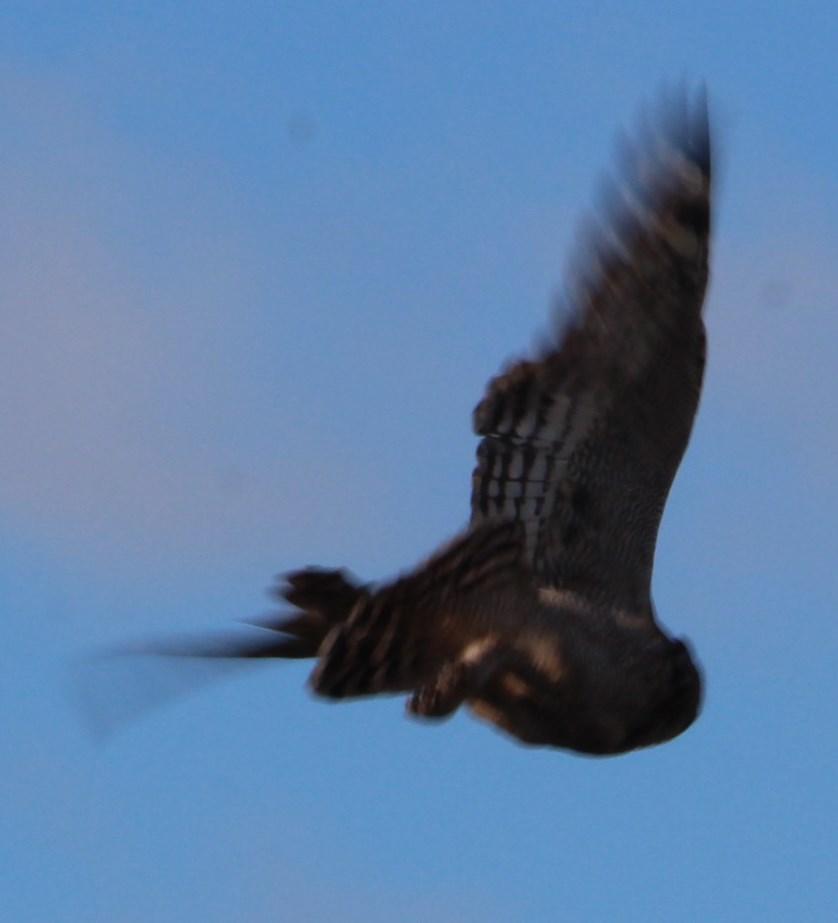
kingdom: Animalia
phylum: Chordata
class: Aves
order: Strigiformes
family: Strigidae
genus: Bubo
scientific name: Bubo africanus
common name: Spotted eagle-owl
